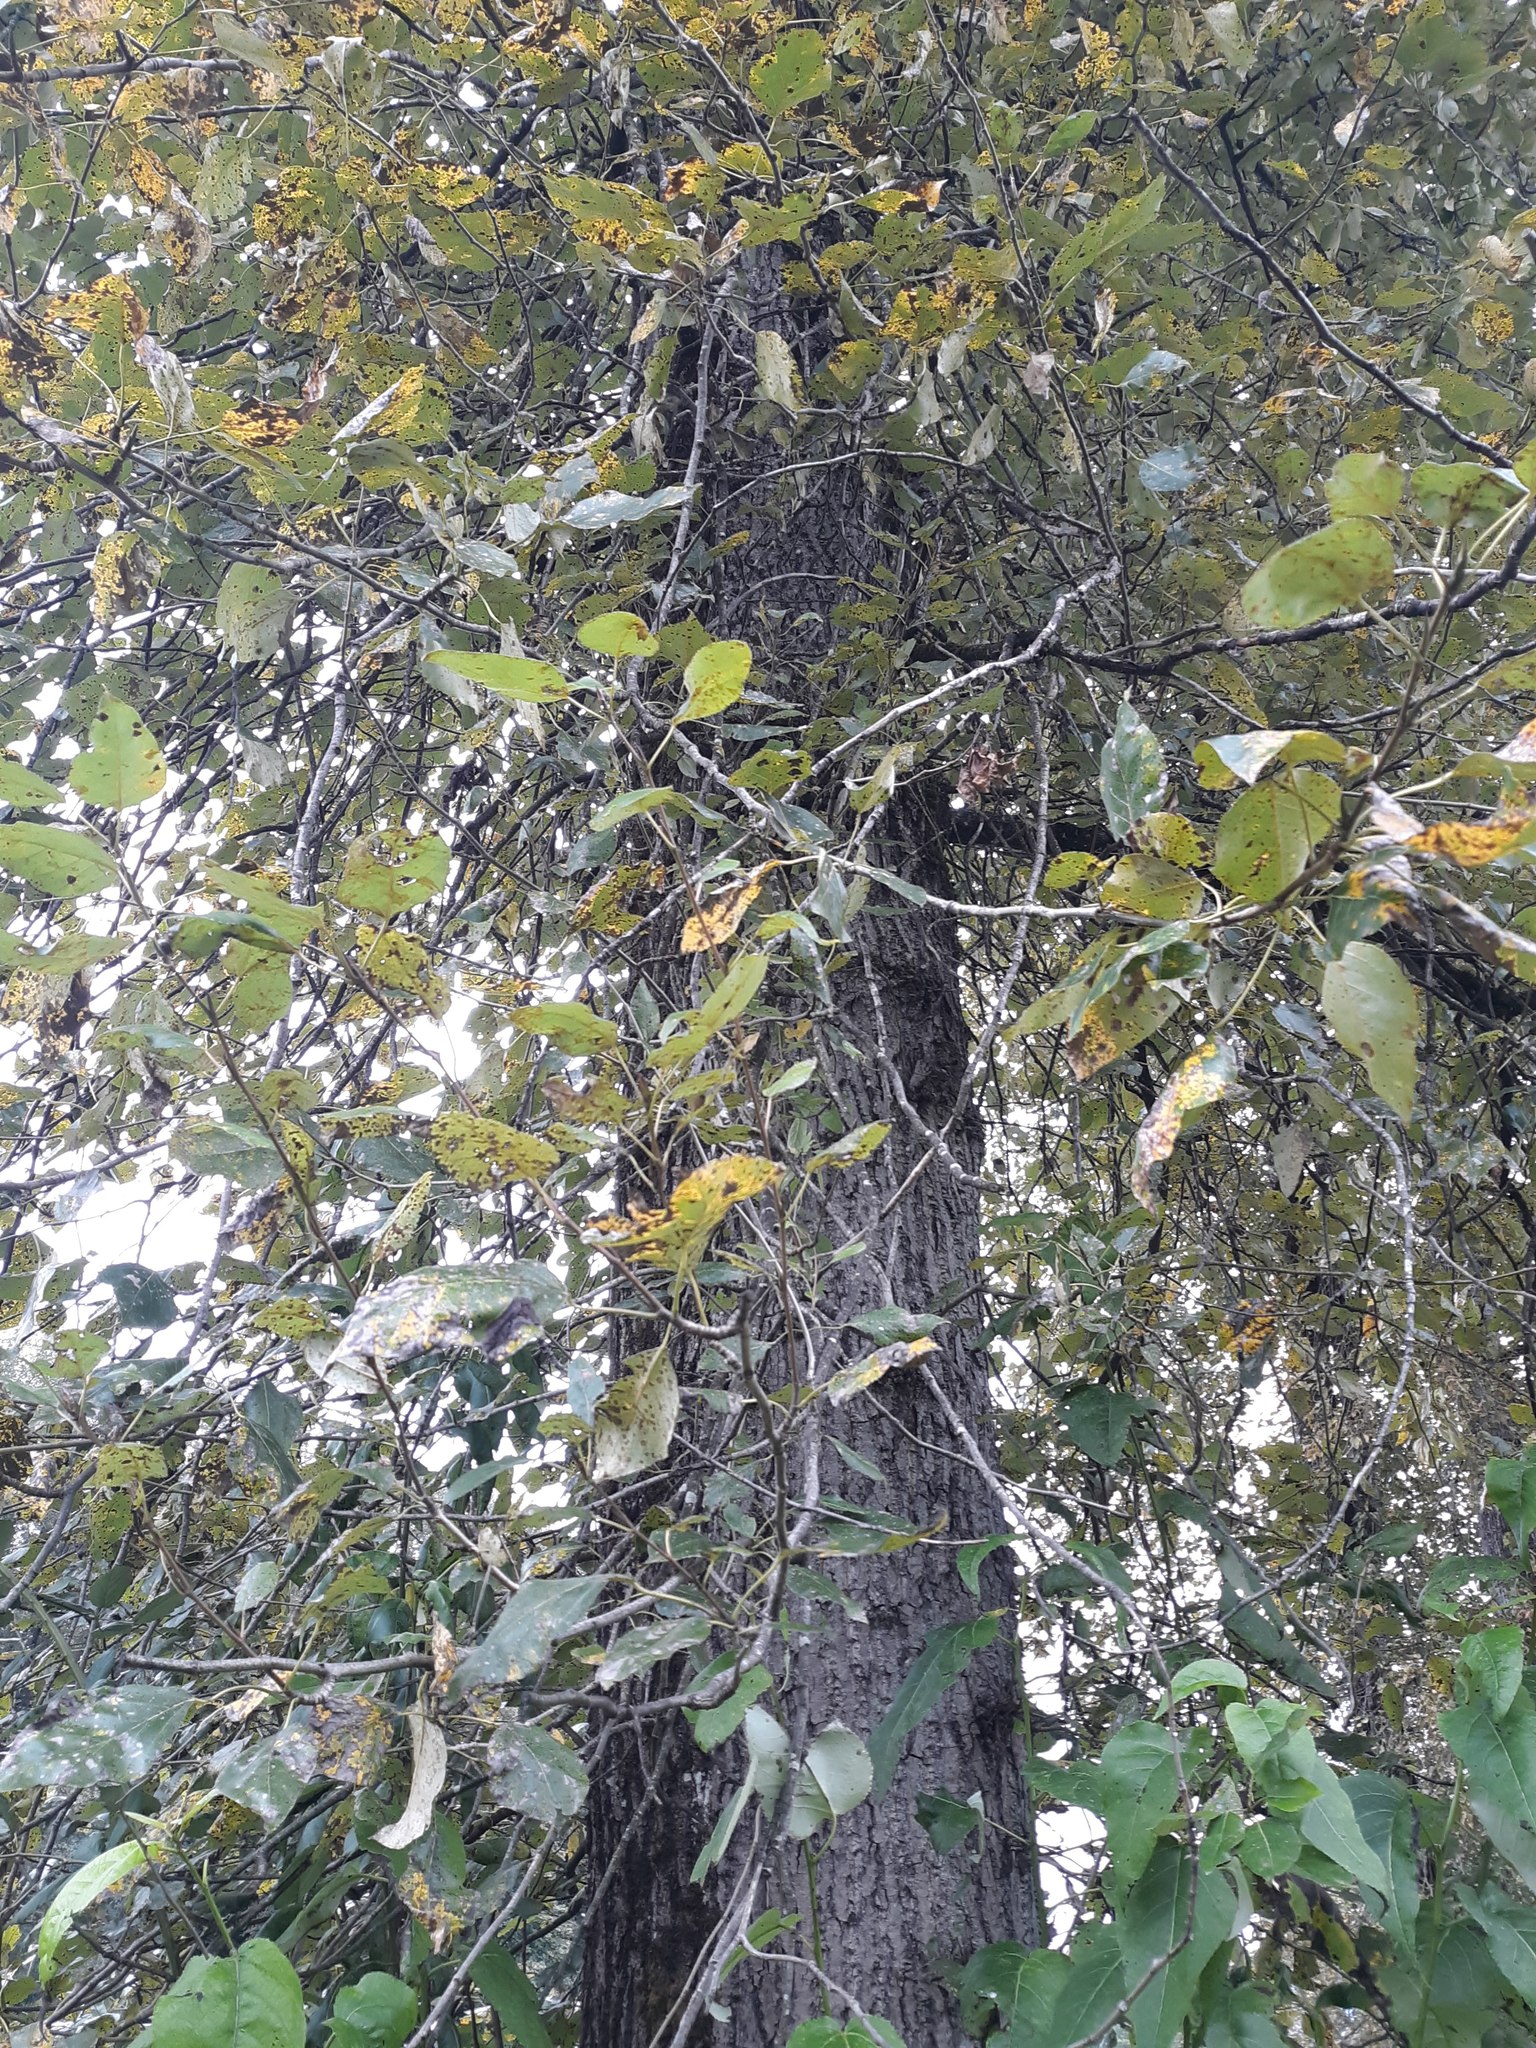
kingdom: Plantae
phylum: Tracheophyta
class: Magnoliopsida
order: Malpighiales
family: Salicaceae
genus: Populus
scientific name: Populus trichocarpa
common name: Black cottonwood
